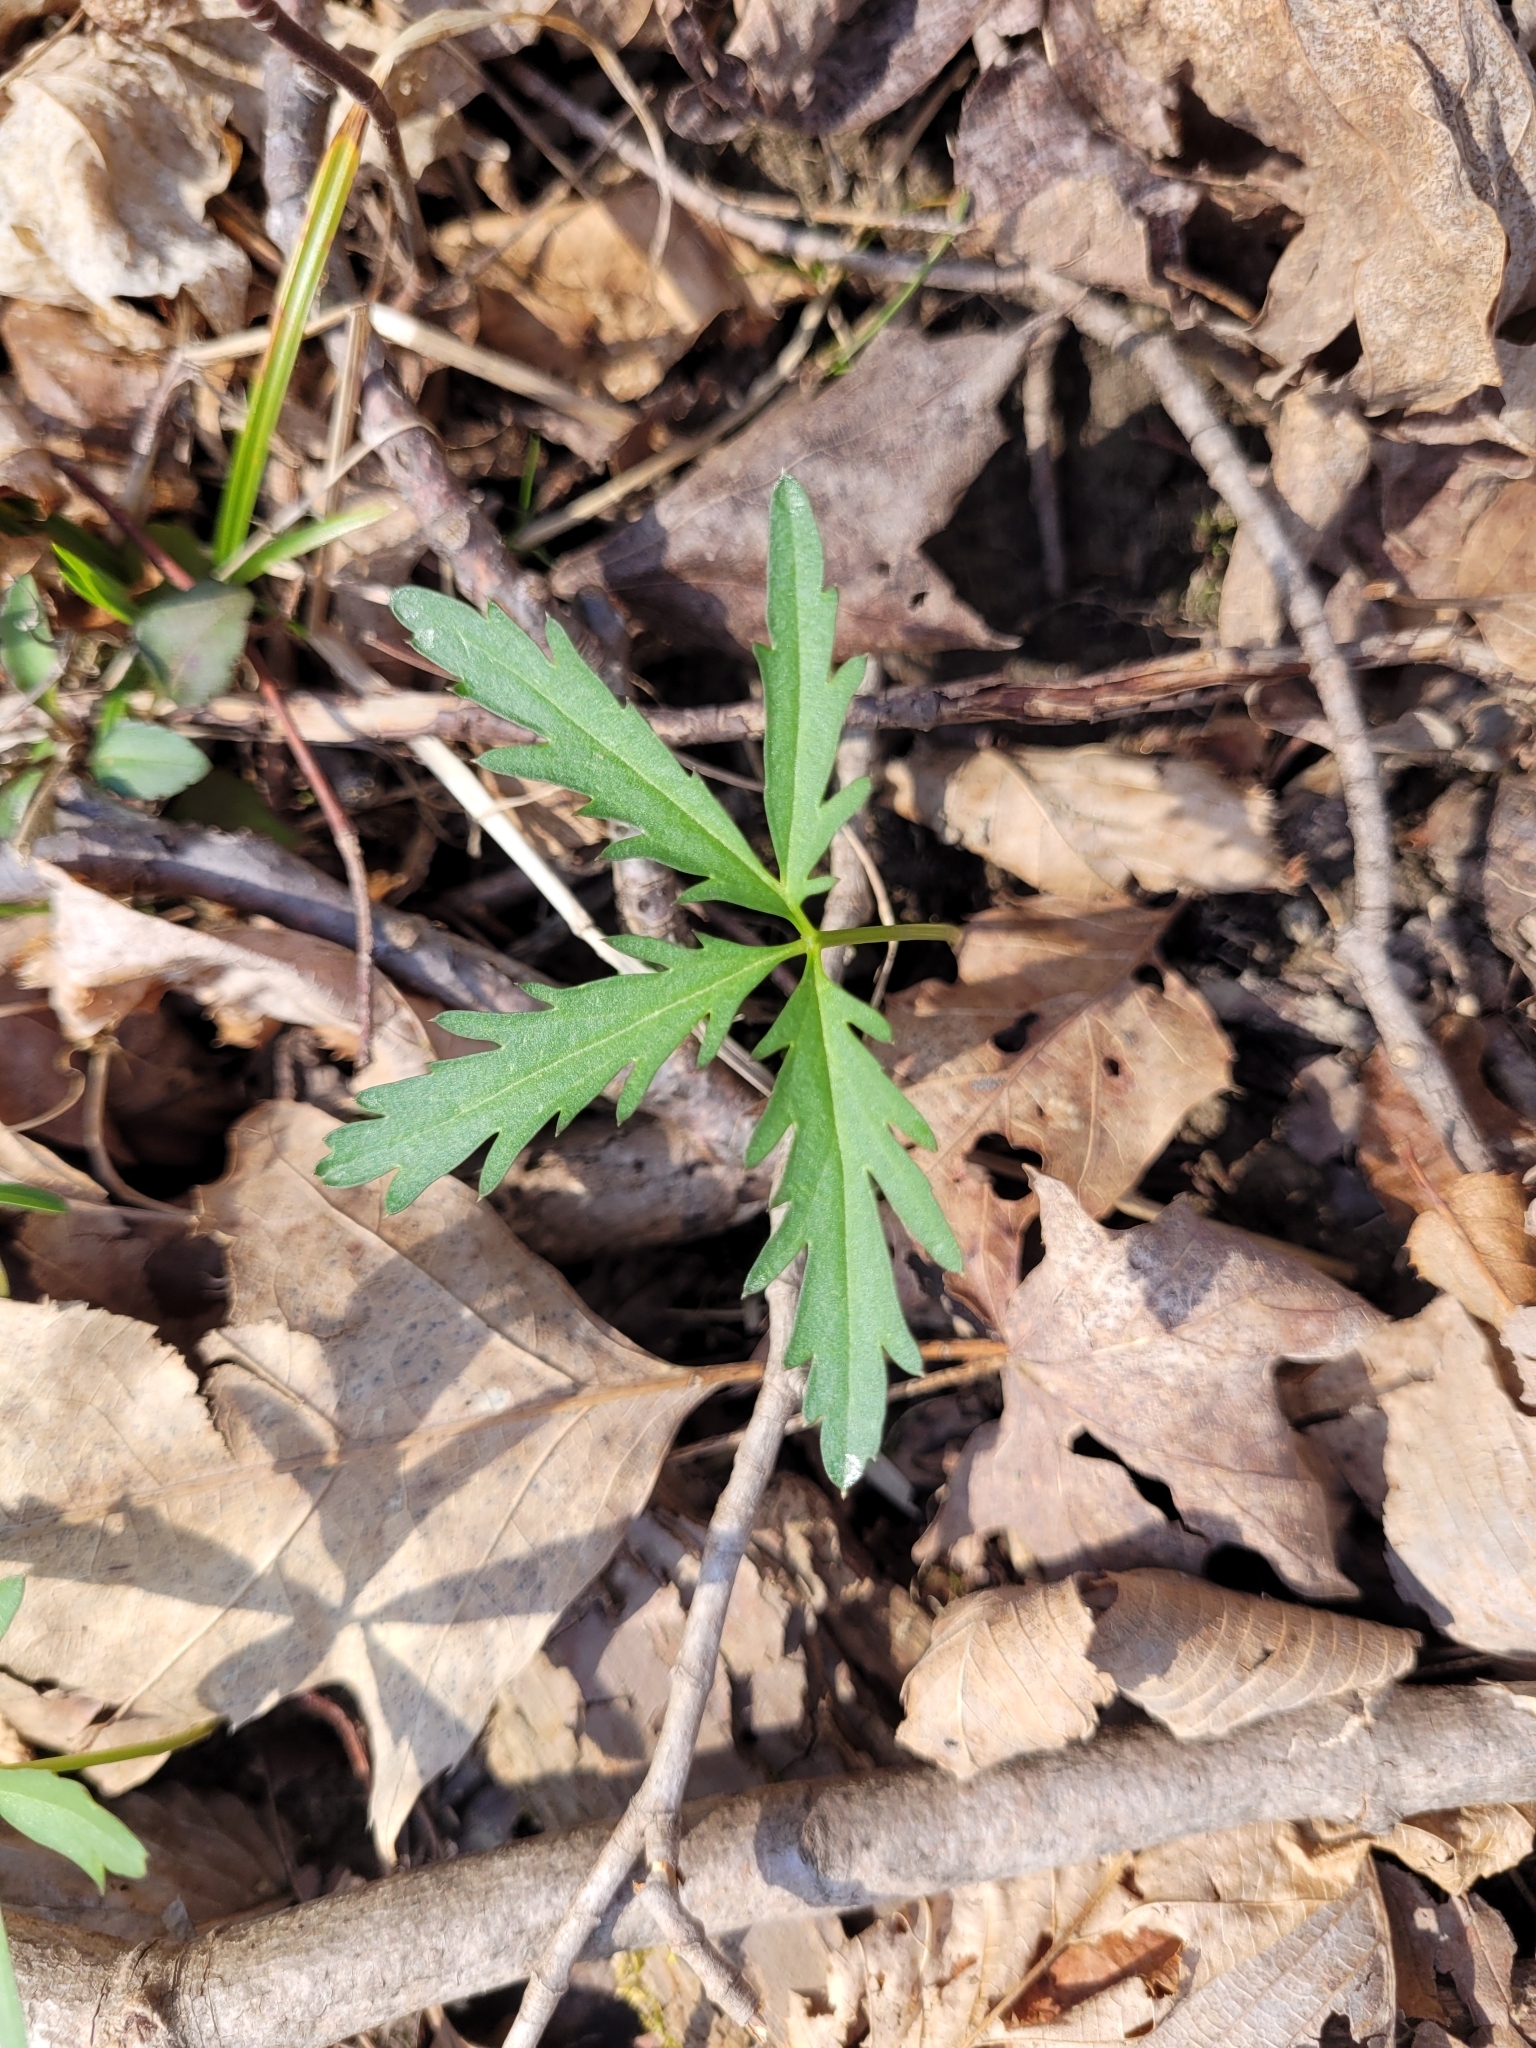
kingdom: Plantae
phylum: Tracheophyta
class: Magnoliopsida
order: Brassicales
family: Brassicaceae
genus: Cardamine
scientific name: Cardamine concatenata
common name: Cut-leaf toothcup
